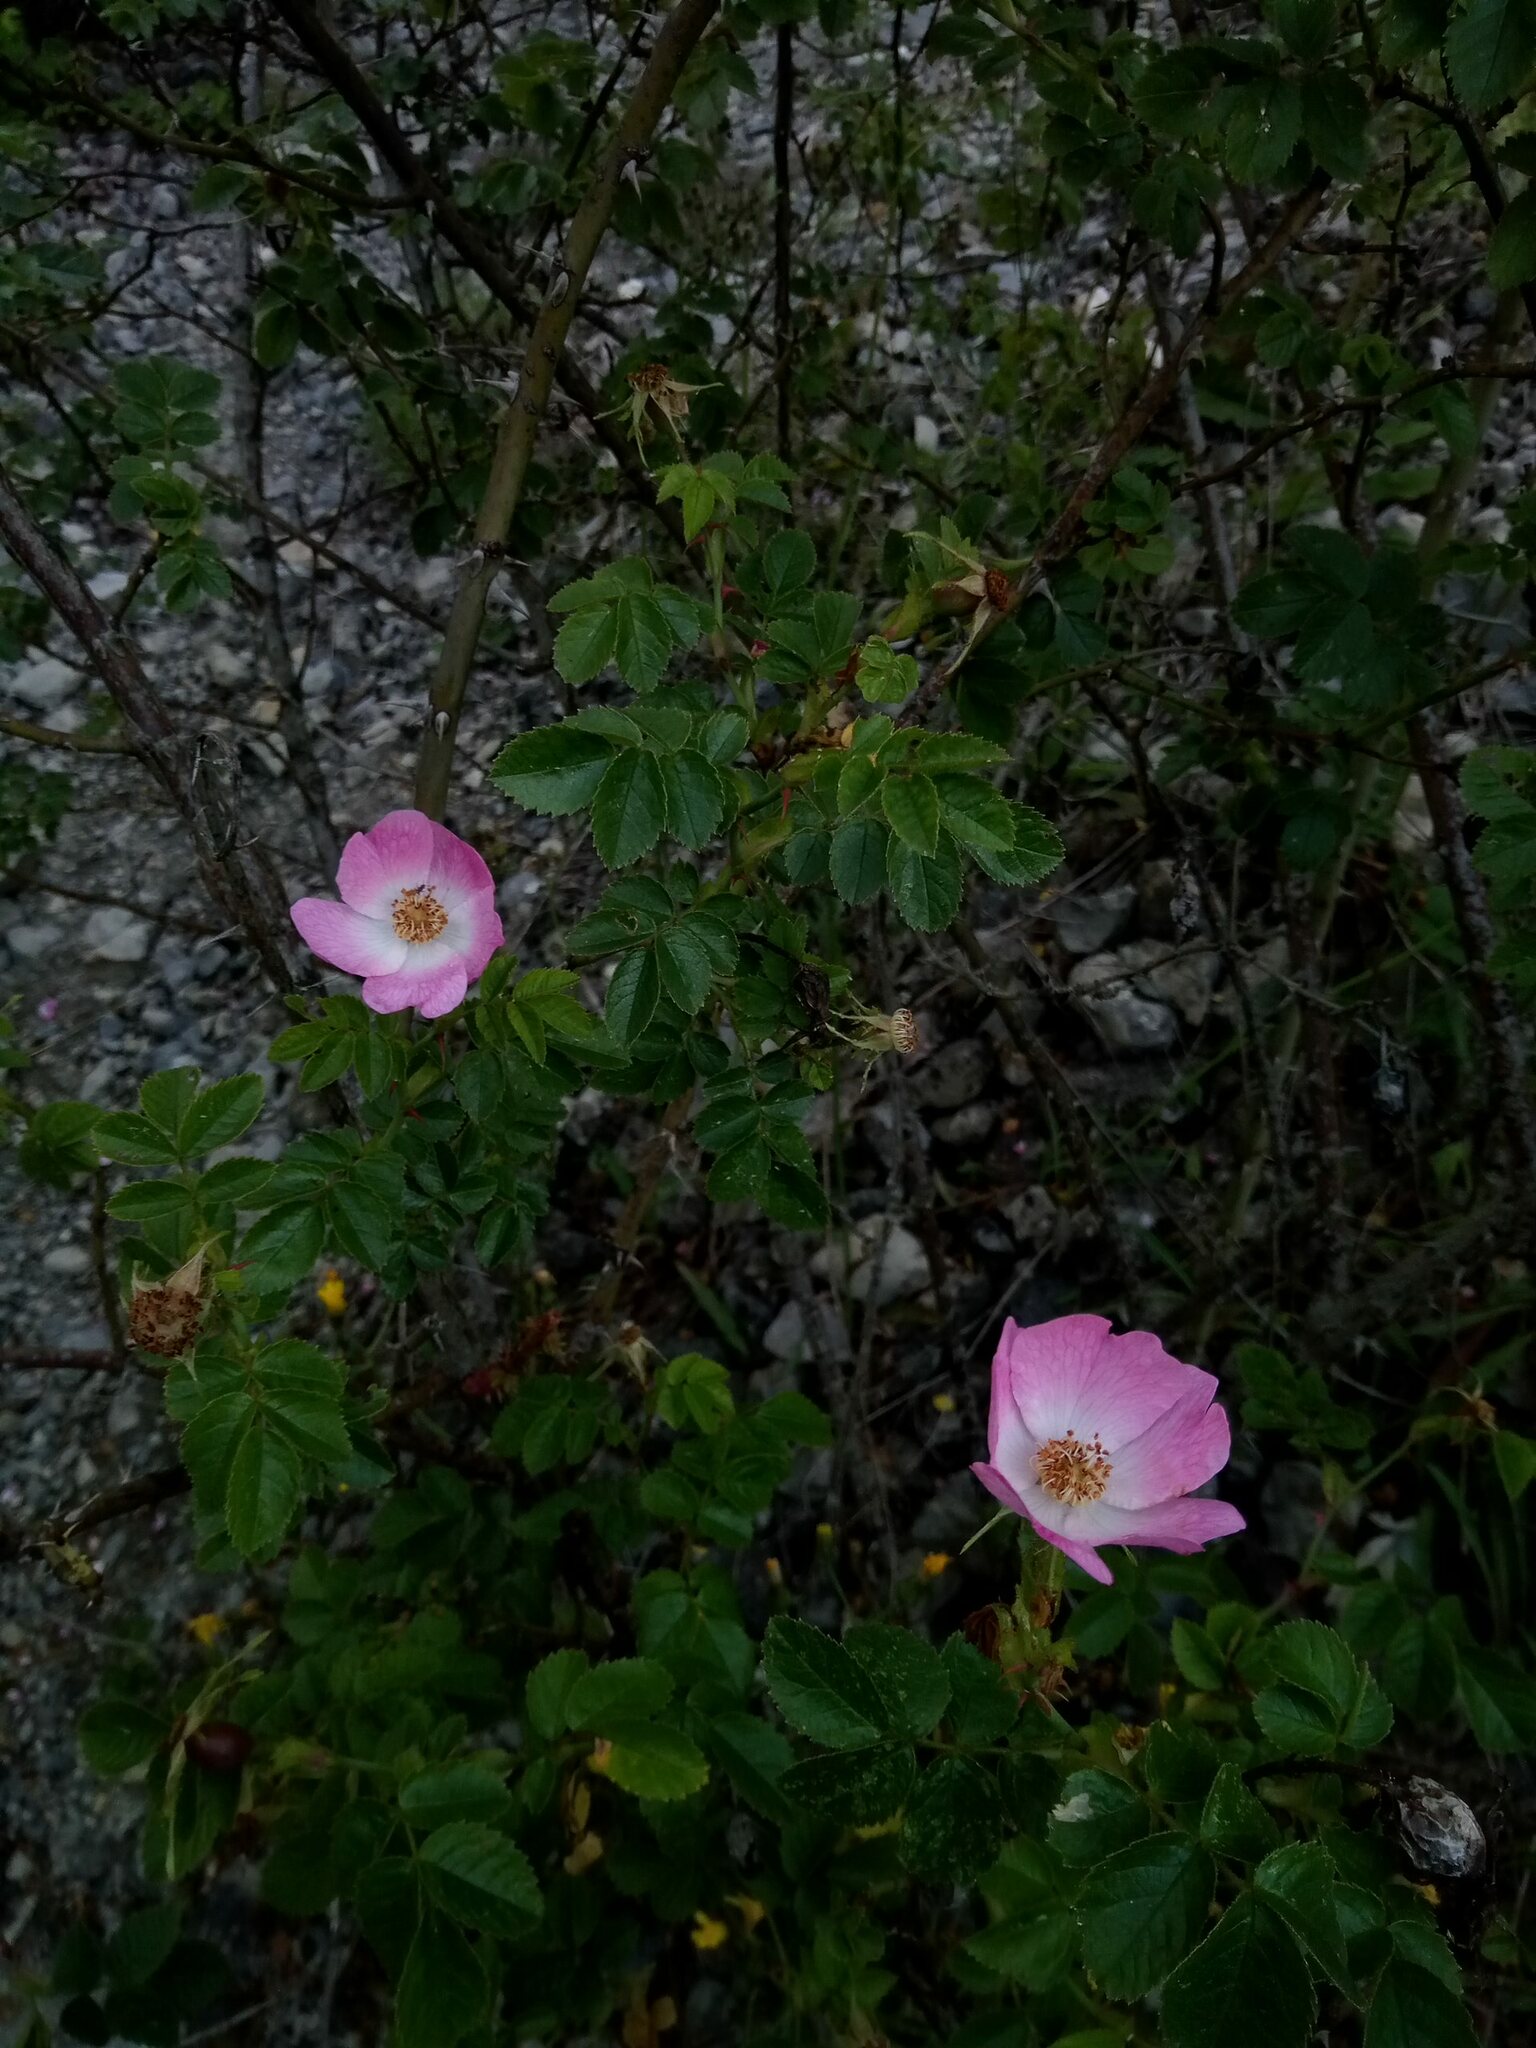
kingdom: Plantae
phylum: Tracheophyta
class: Magnoliopsida
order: Rosales
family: Rosaceae
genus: Rosa
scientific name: Rosa rubiginosa
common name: Sweet-briar
